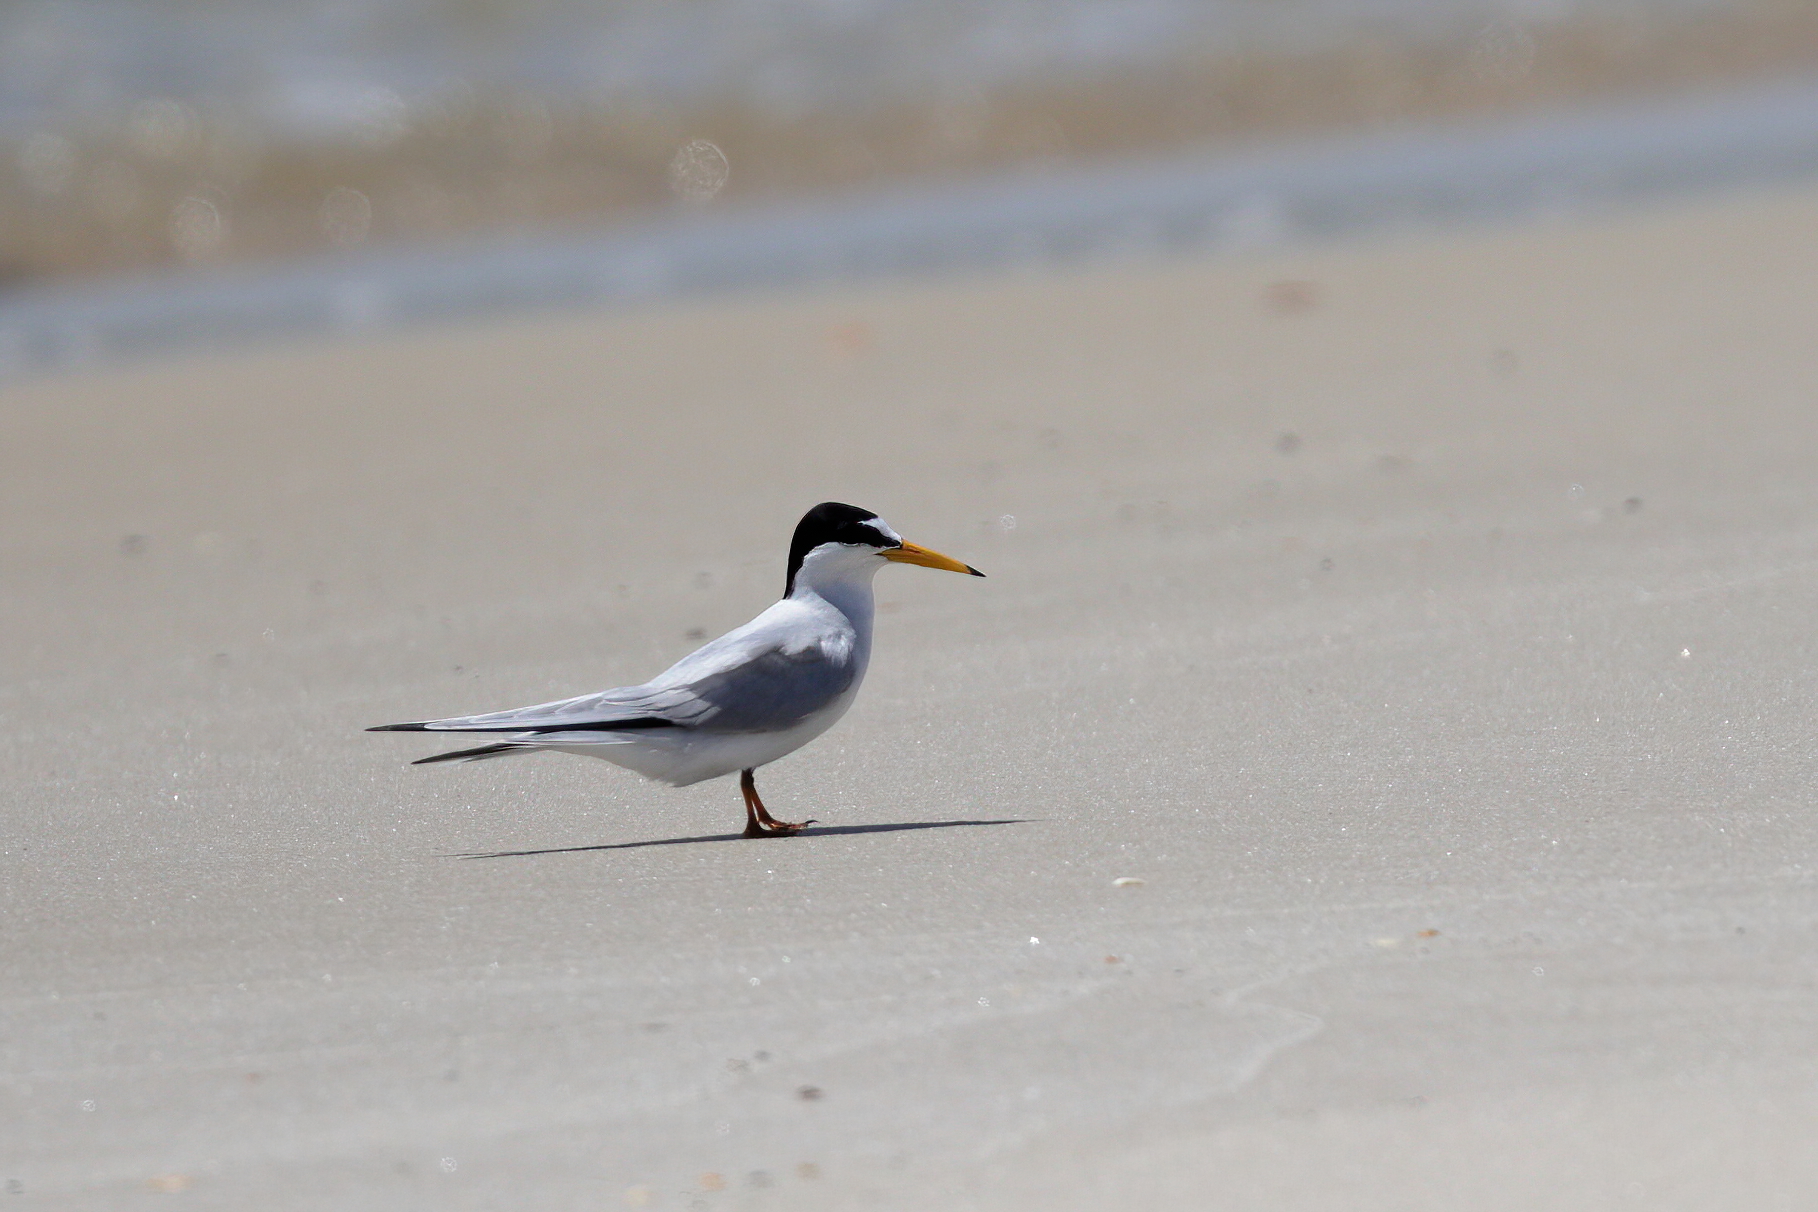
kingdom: Animalia
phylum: Chordata
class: Aves
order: Charadriiformes
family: Laridae
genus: Sternula
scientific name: Sternula antillarum
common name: Least tern
